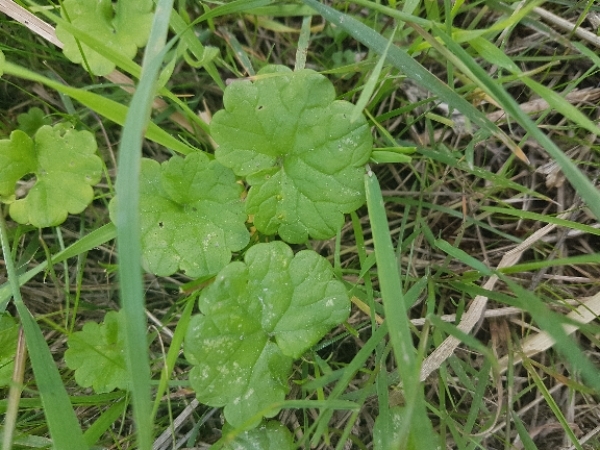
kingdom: Plantae
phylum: Tracheophyta
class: Magnoliopsida
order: Lamiales
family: Lamiaceae
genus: Glechoma
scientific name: Glechoma hederacea
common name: Ground ivy
